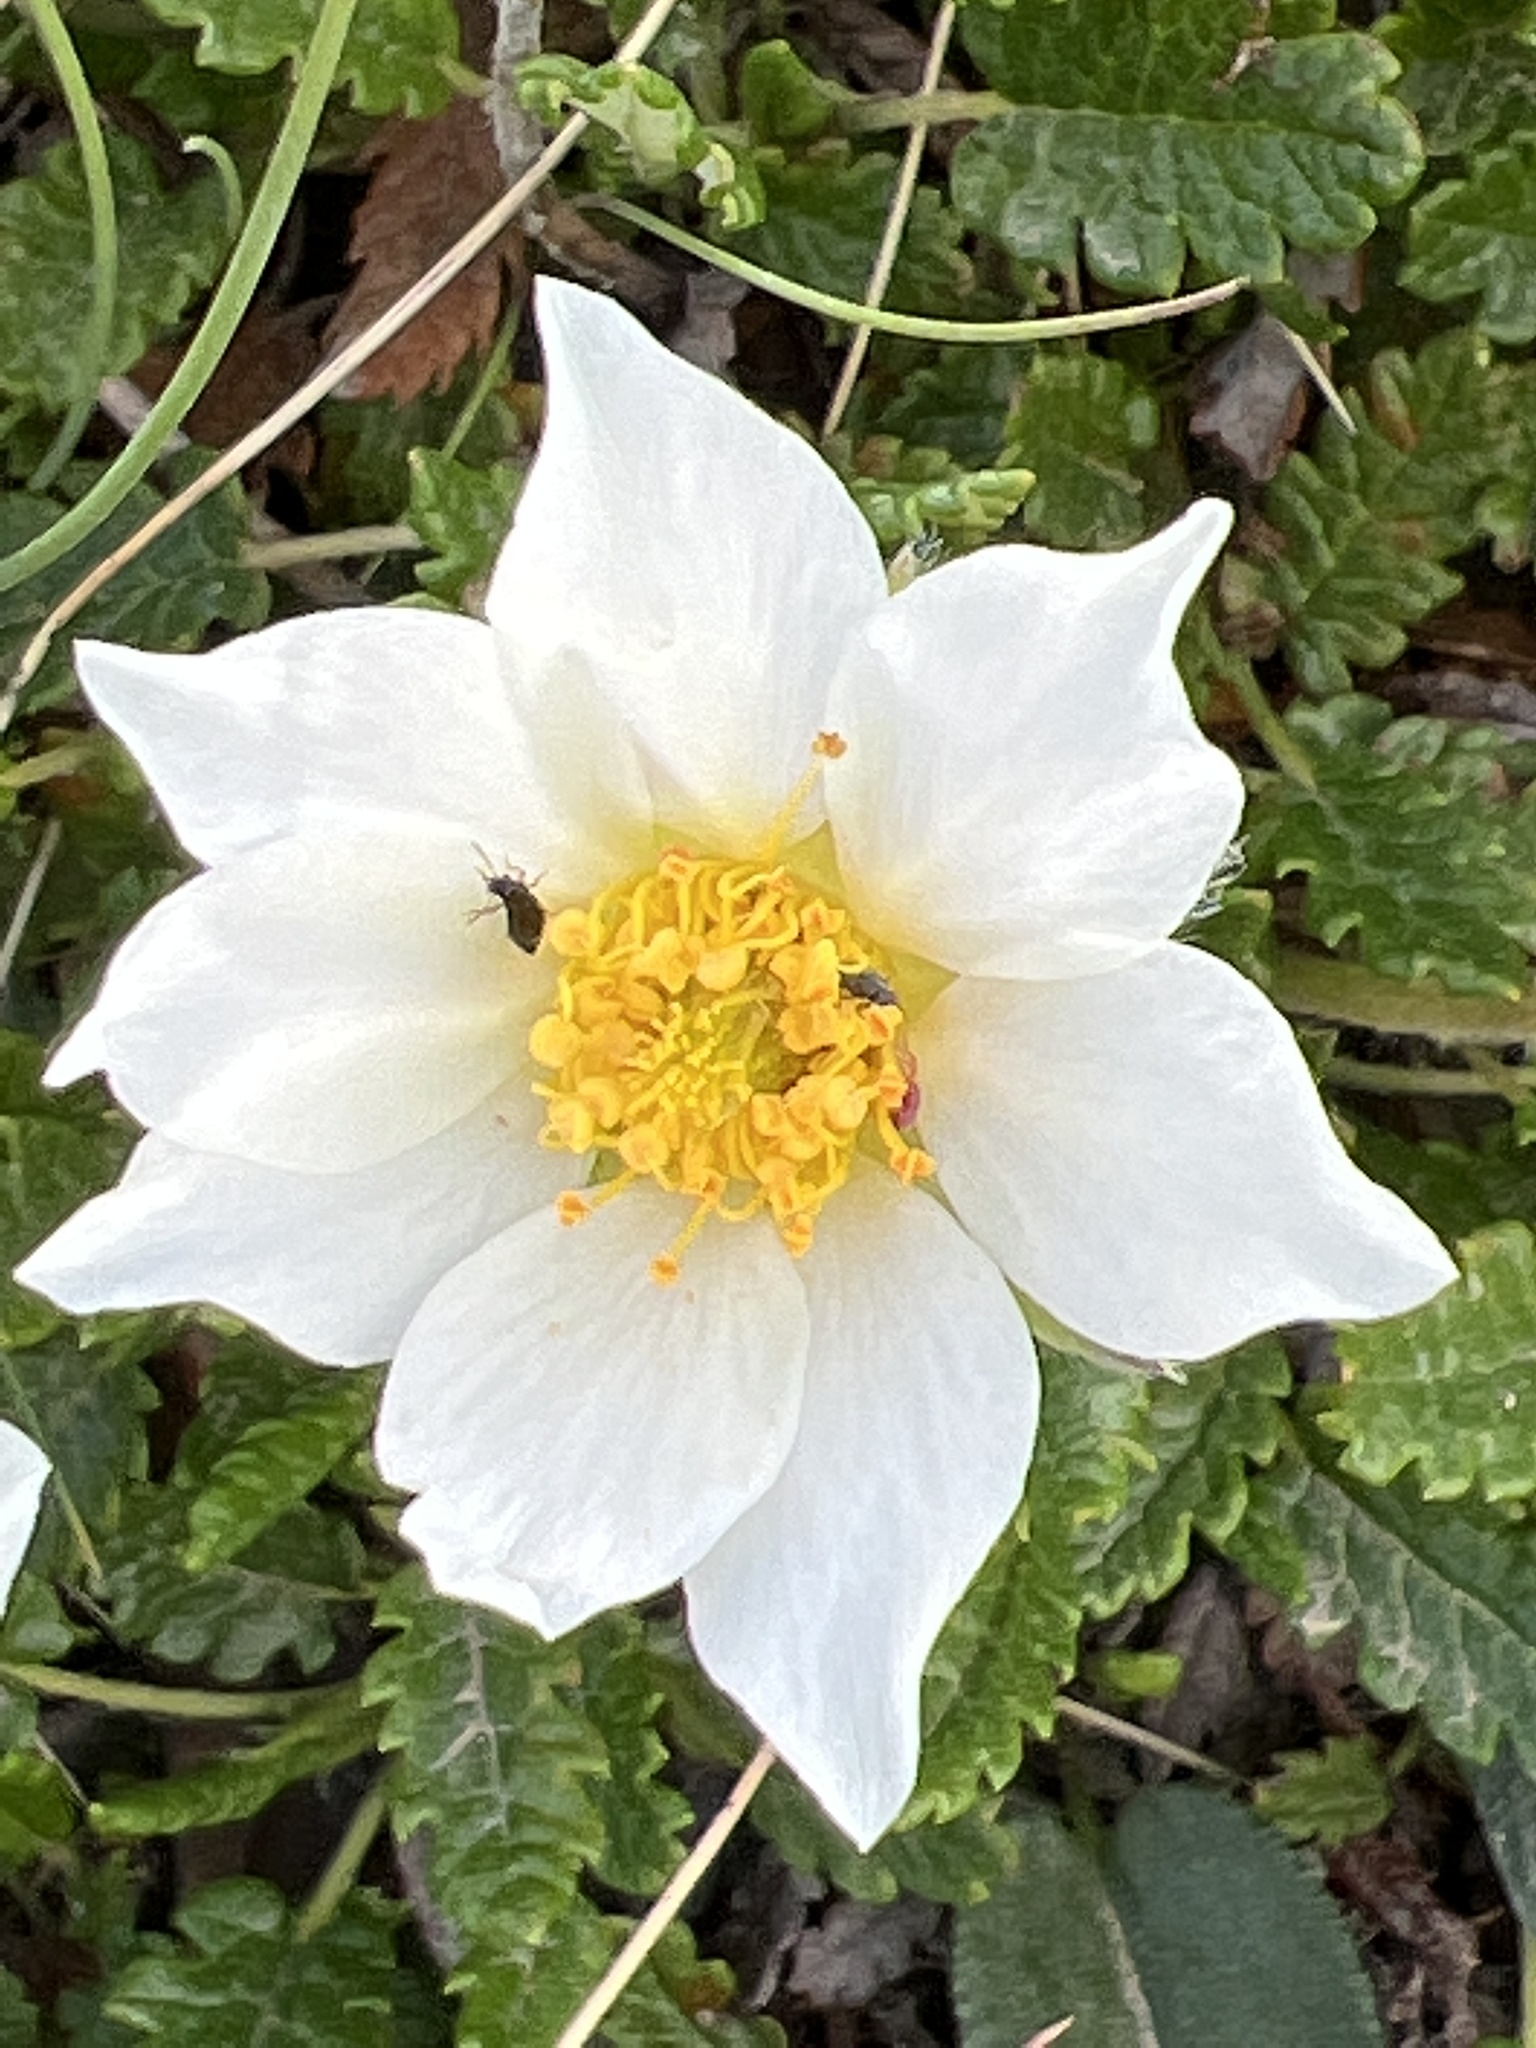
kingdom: Plantae
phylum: Tracheophyta
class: Magnoliopsida
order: Rosales
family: Rosaceae
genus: Dryas
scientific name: Dryas octopetala
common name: Eight-petal mountain-avens
